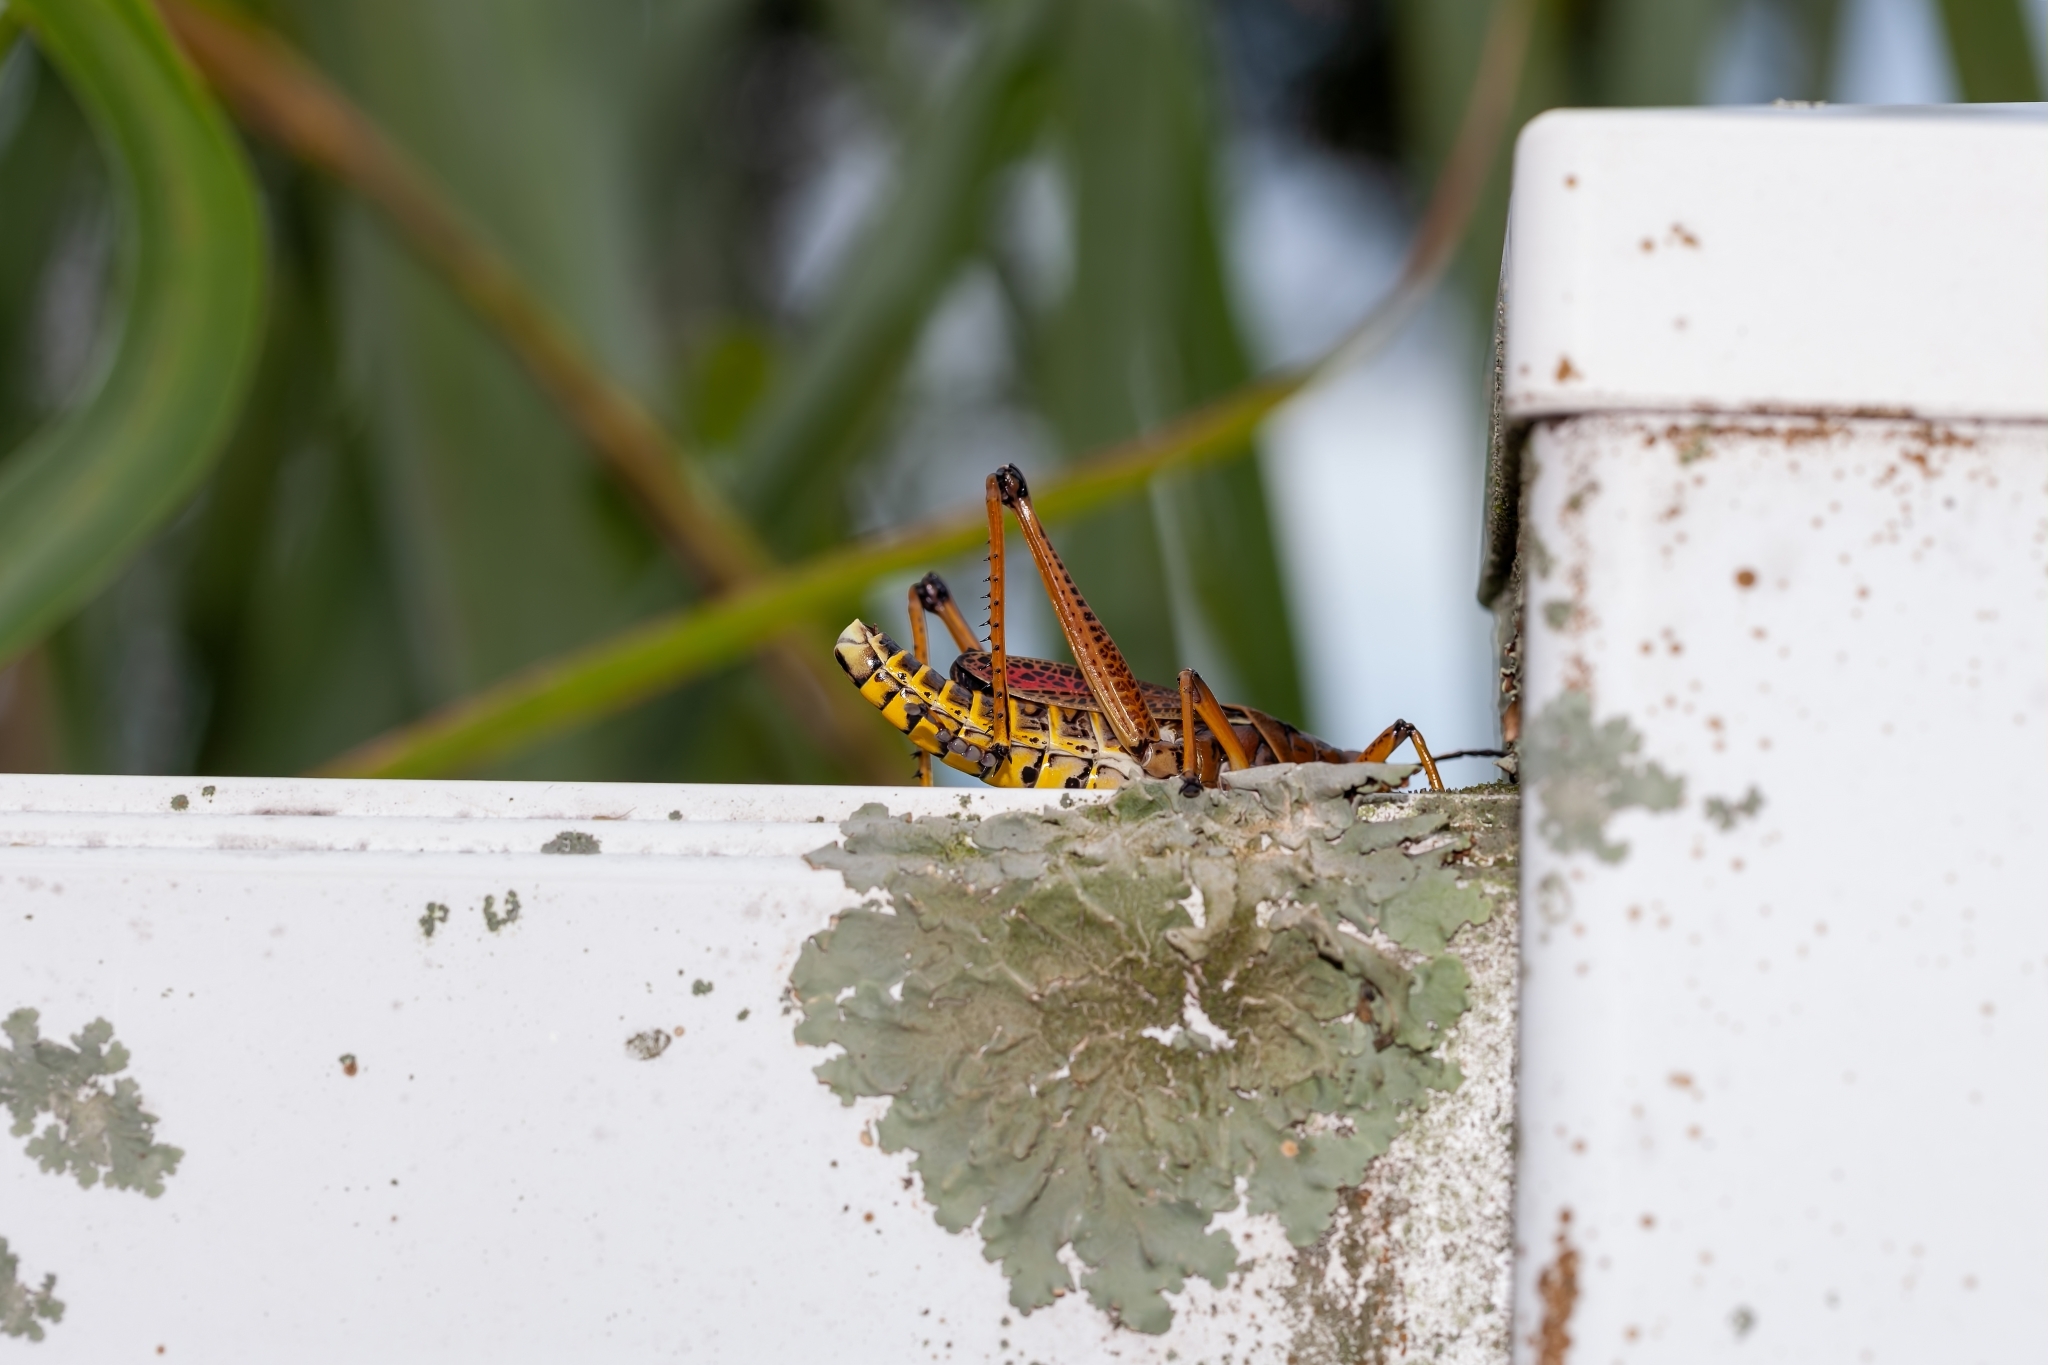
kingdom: Animalia
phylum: Arthropoda
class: Insecta
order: Orthoptera
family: Romaleidae
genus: Romalea
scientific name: Romalea microptera
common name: Eastern lubber grasshopper
